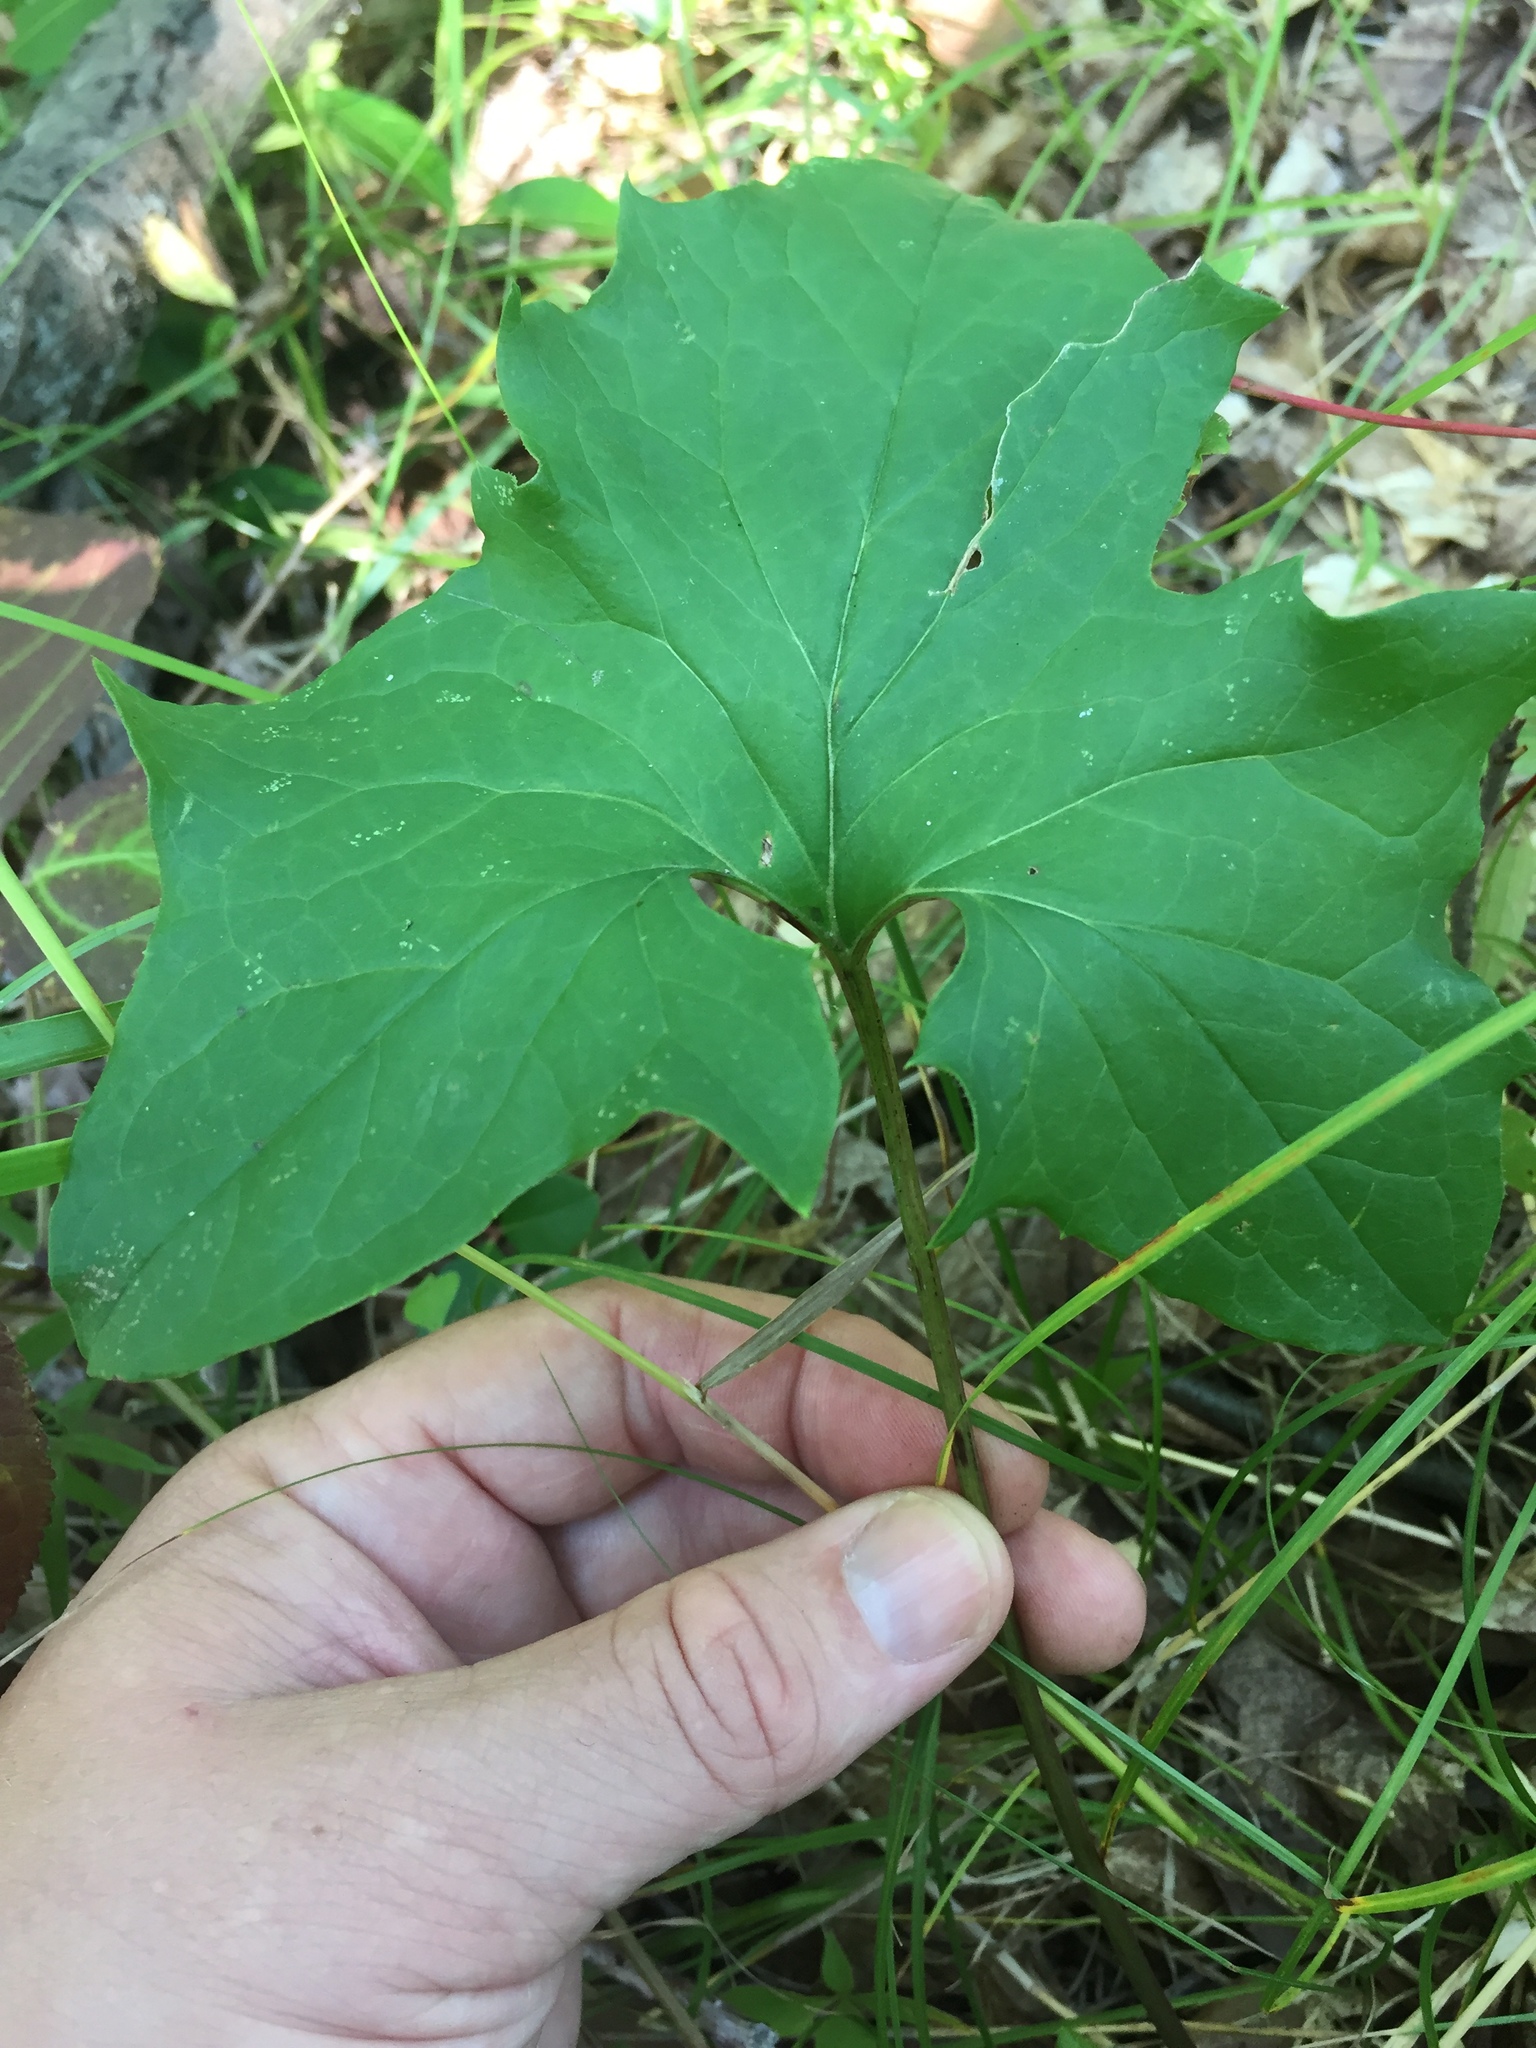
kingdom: Plantae
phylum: Tracheophyta
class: Magnoliopsida
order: Asterales
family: Asteraceae
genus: Nabalus
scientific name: Nabalus albus
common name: White rattlesnakeroot
